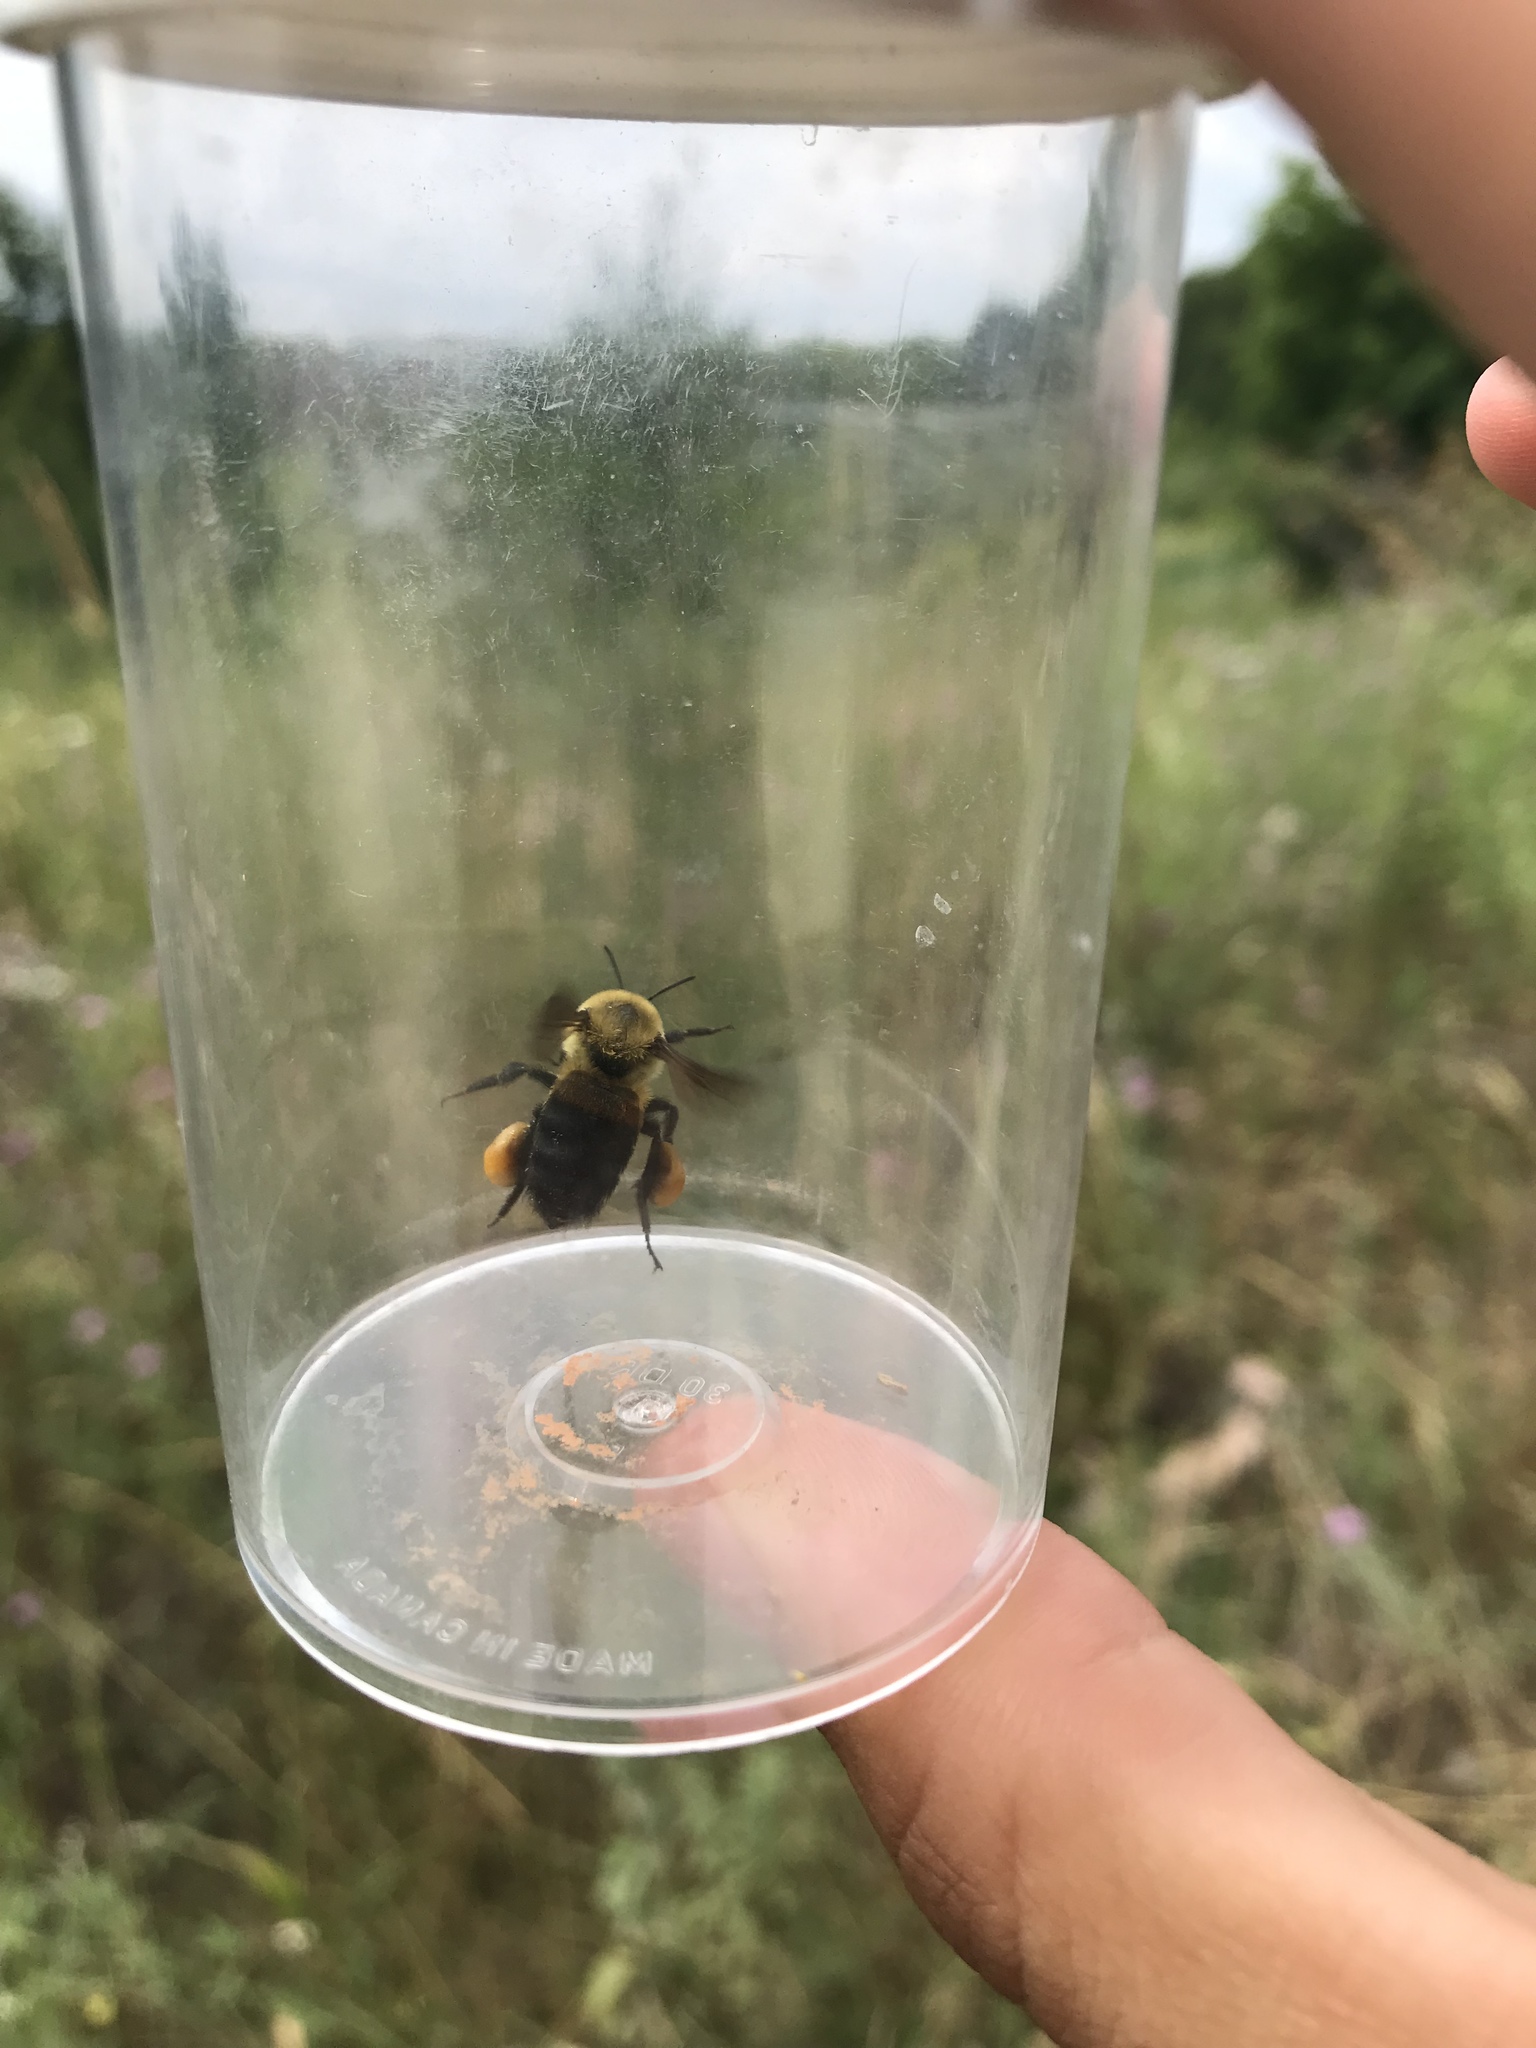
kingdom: Animalia
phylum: Arthropoda
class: Insecta
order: Hymenoptera
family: Apidae
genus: Bombus
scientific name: Bombus griseocollis
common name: Brown-belted bumble bee
